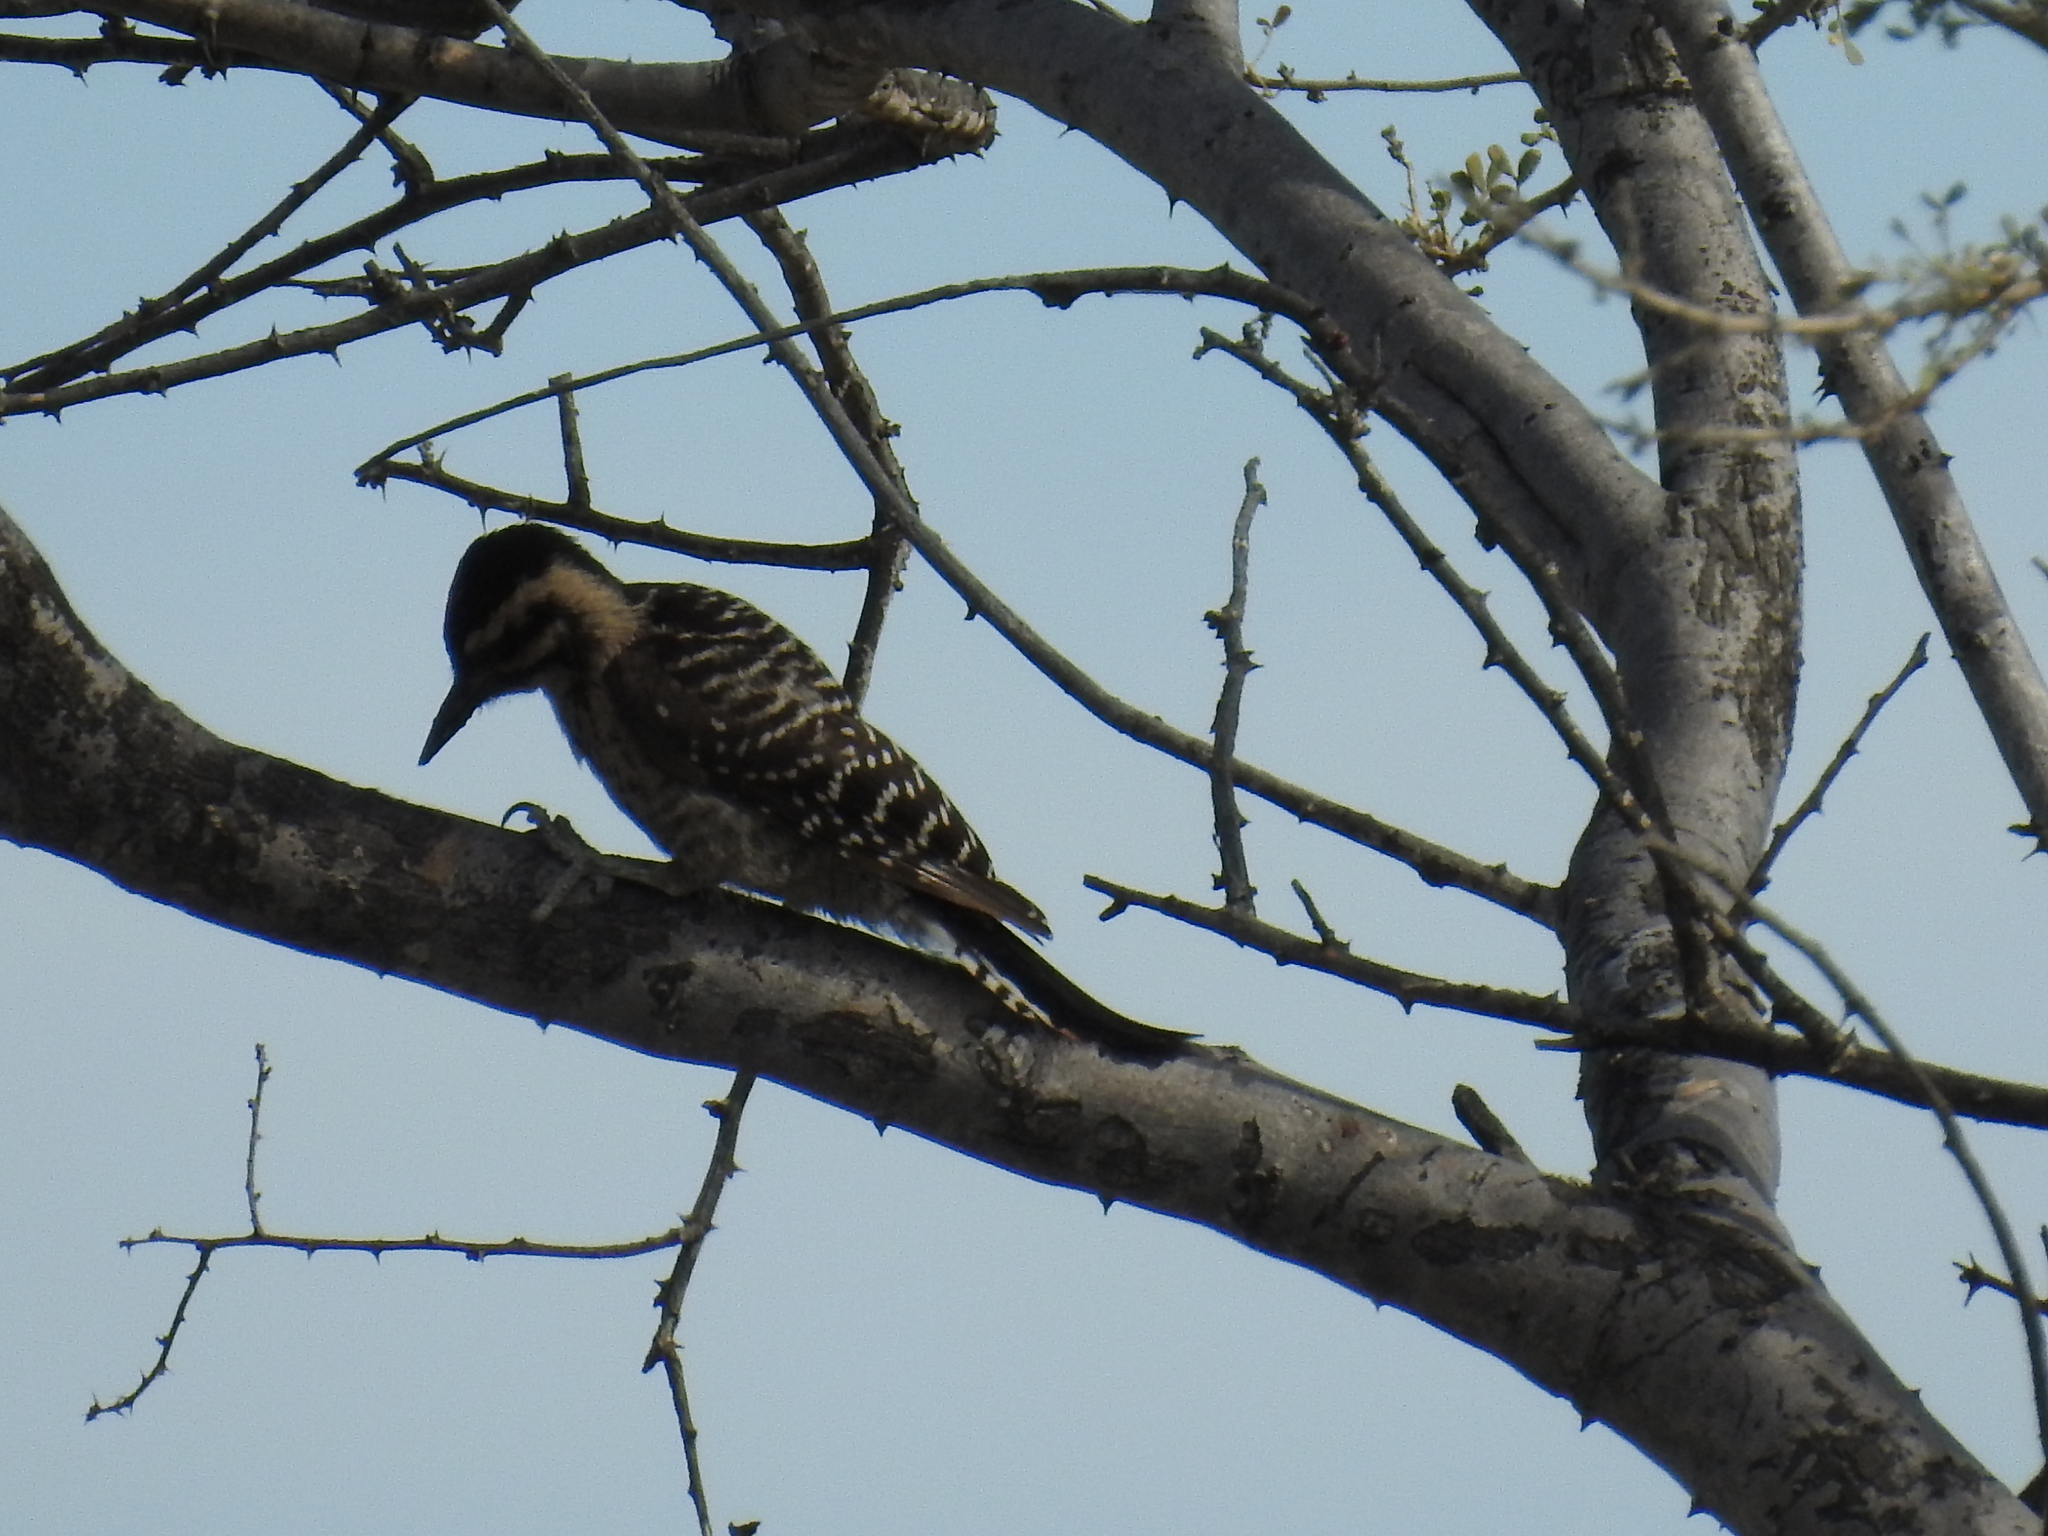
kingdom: Animalia
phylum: Chordata
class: Aves
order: Piciformes
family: Picidae
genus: Dryobates
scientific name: Dryobates scalaris
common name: Ladder-backed woodpecker
